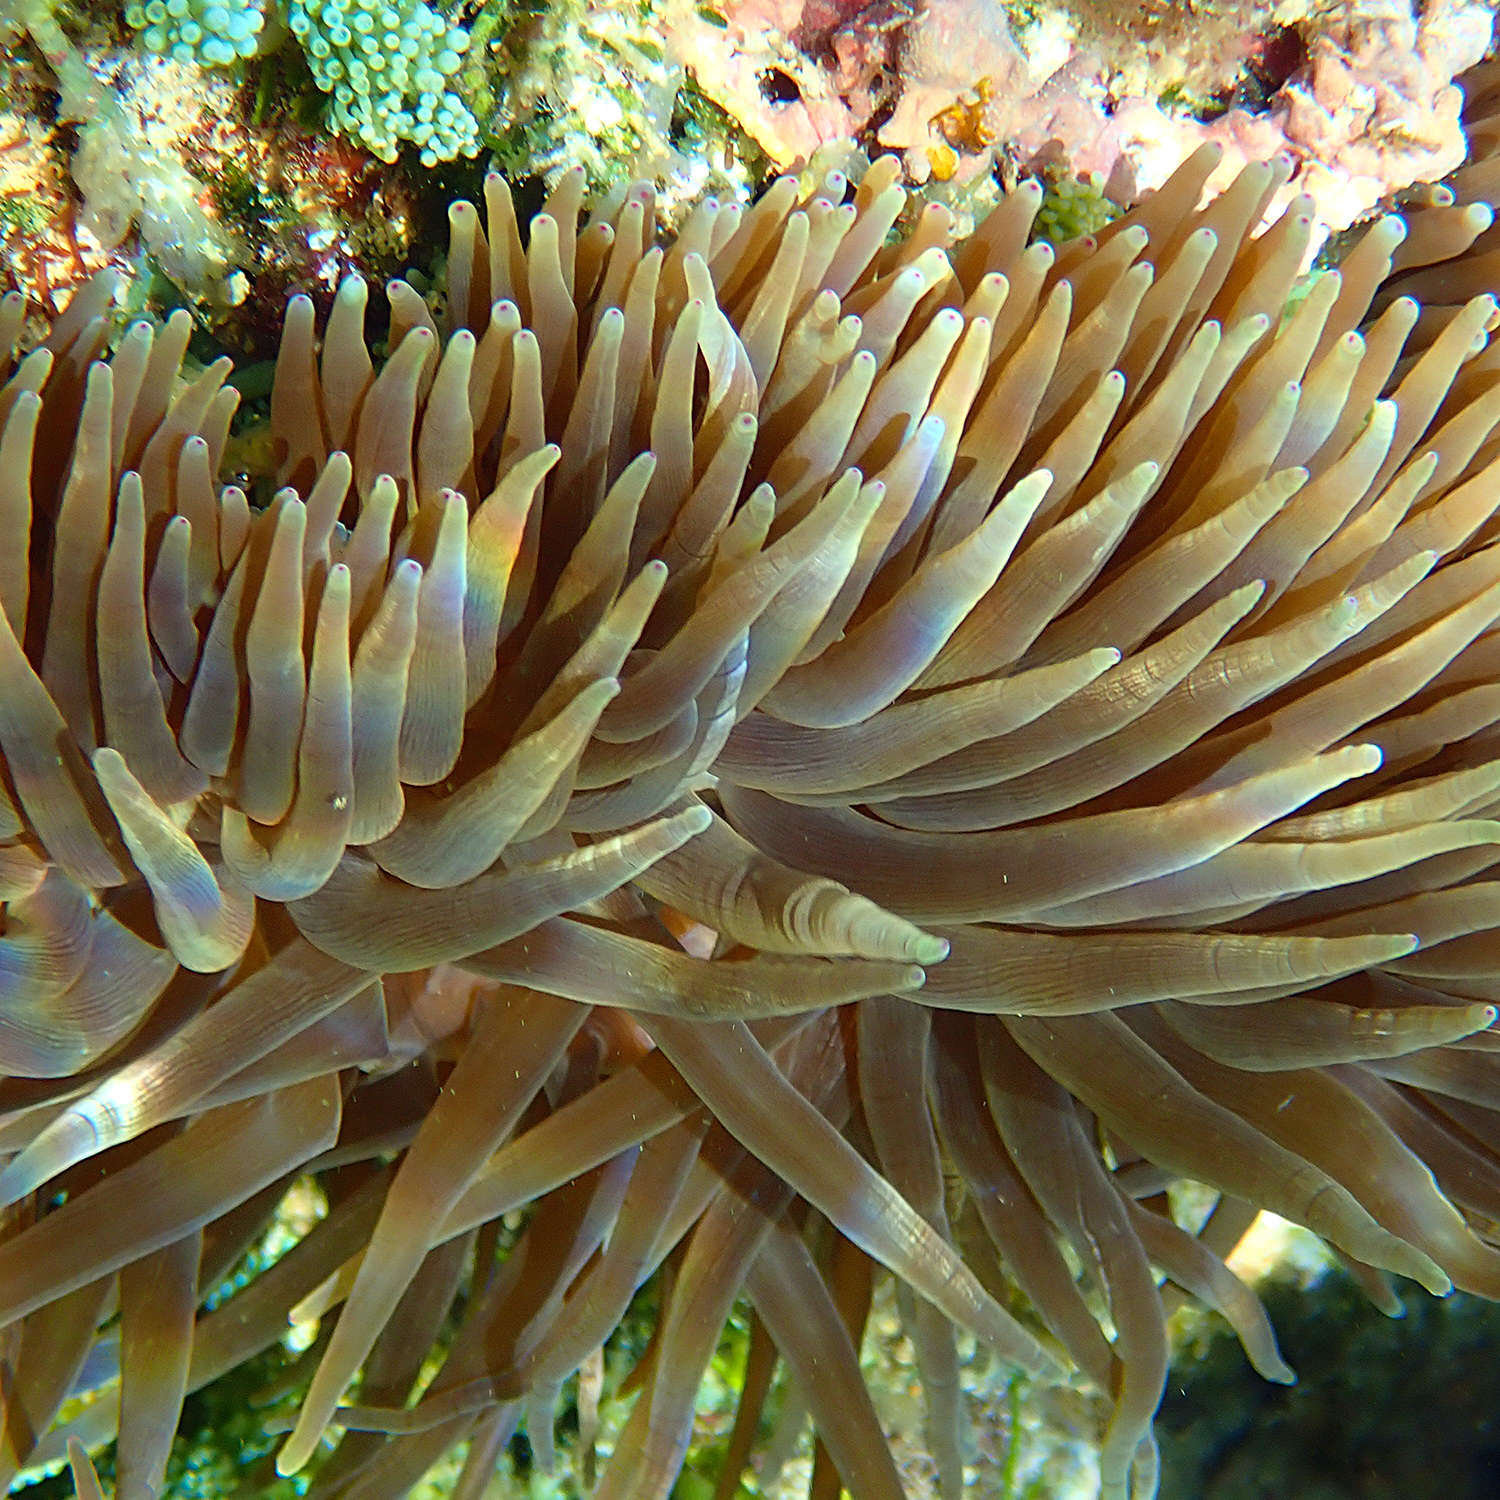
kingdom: Animalia
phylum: Cnidaria
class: Anthozoa
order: Actiniaria
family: Actiniidae
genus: Entacmaea
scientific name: Entacmaea quadricolor
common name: Bulb tentacle sea anemone
